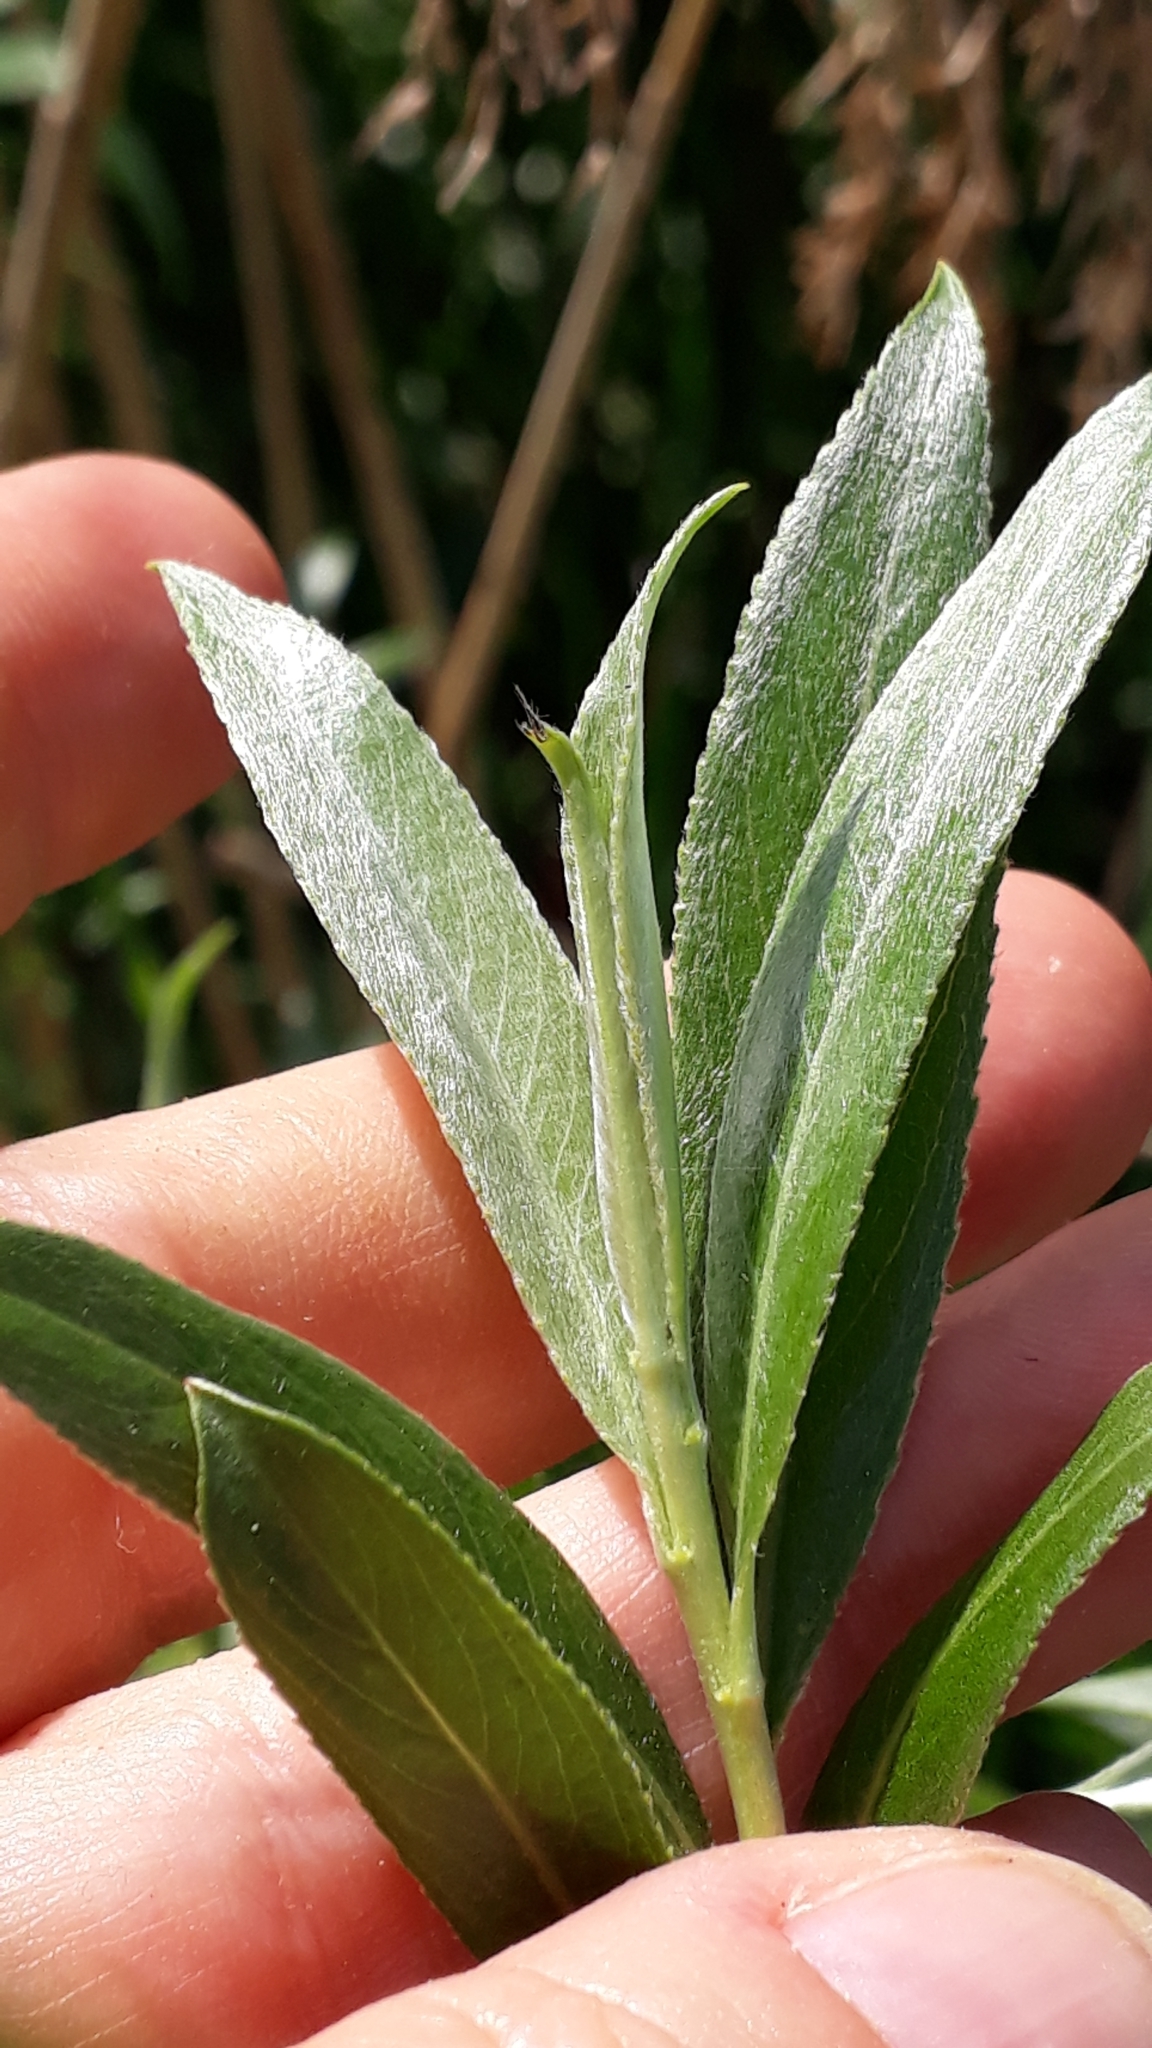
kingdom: Plantae
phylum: Tracheophyta
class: Magnoliopsida
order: Malpighiales
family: Salicaceae
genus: Salix
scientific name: Salix alba
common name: White willow
